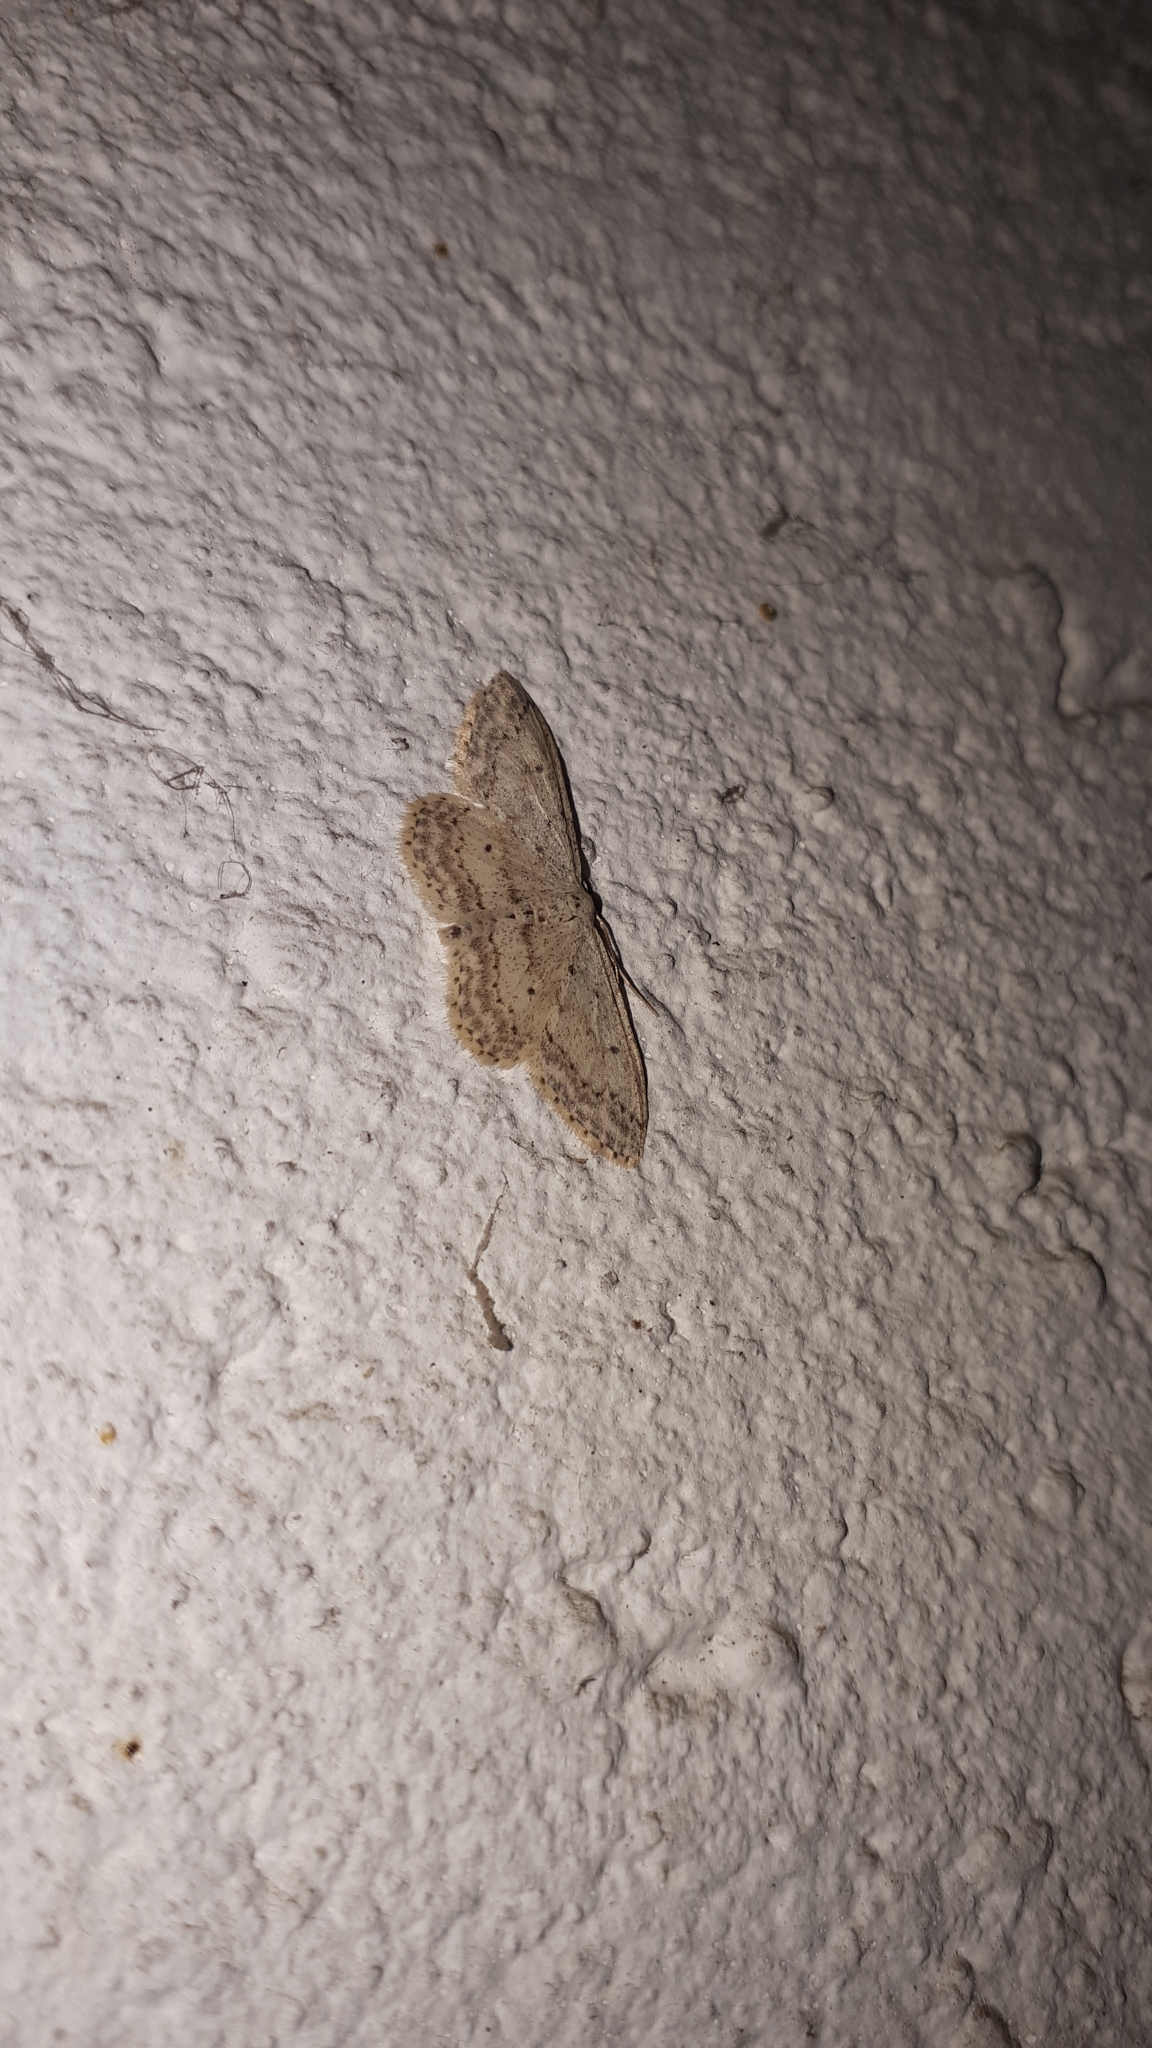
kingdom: Animalia
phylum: Arthropoda
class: Insecta
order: Lepidoptera
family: Geometridae
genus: Idaea
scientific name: Idaea seriata
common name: Small dusty wave
